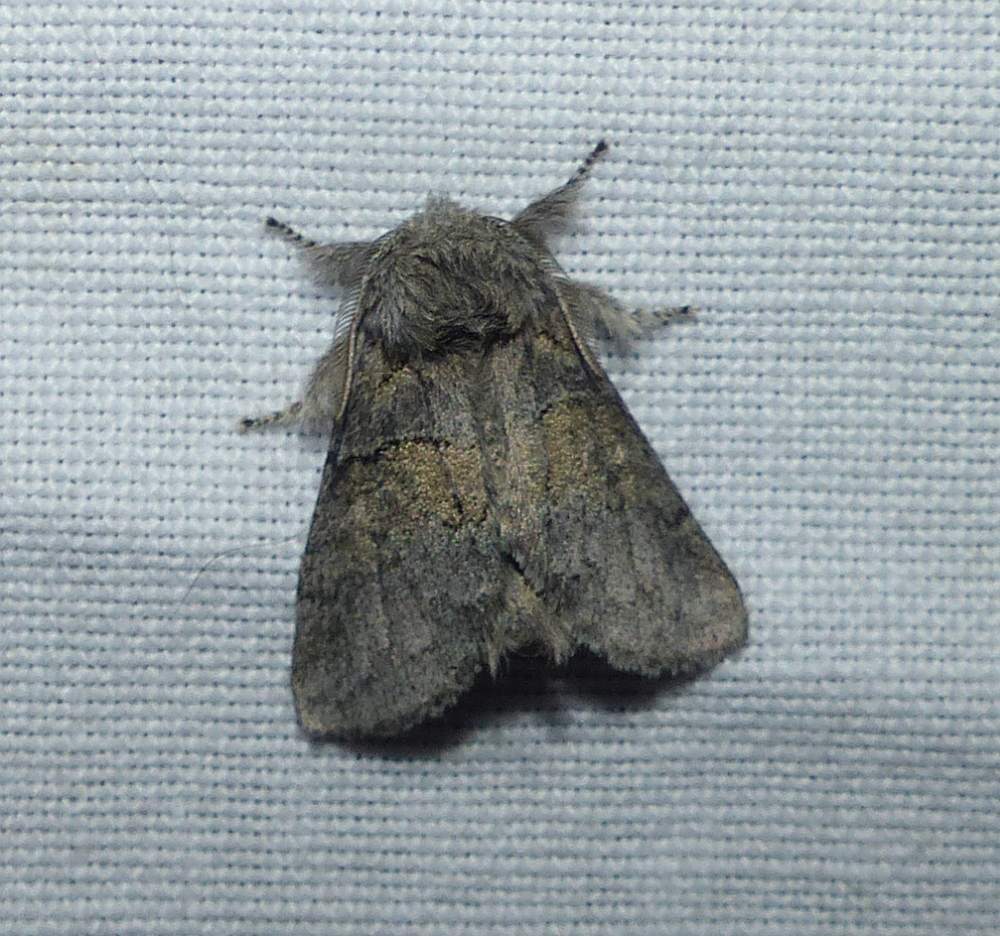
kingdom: Animalia
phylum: Arthropoda
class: Insecta
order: Lepidoptera
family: Notodontidae
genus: Gluphisia
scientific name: Gluphisia septentrionis
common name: Common gluphisia
